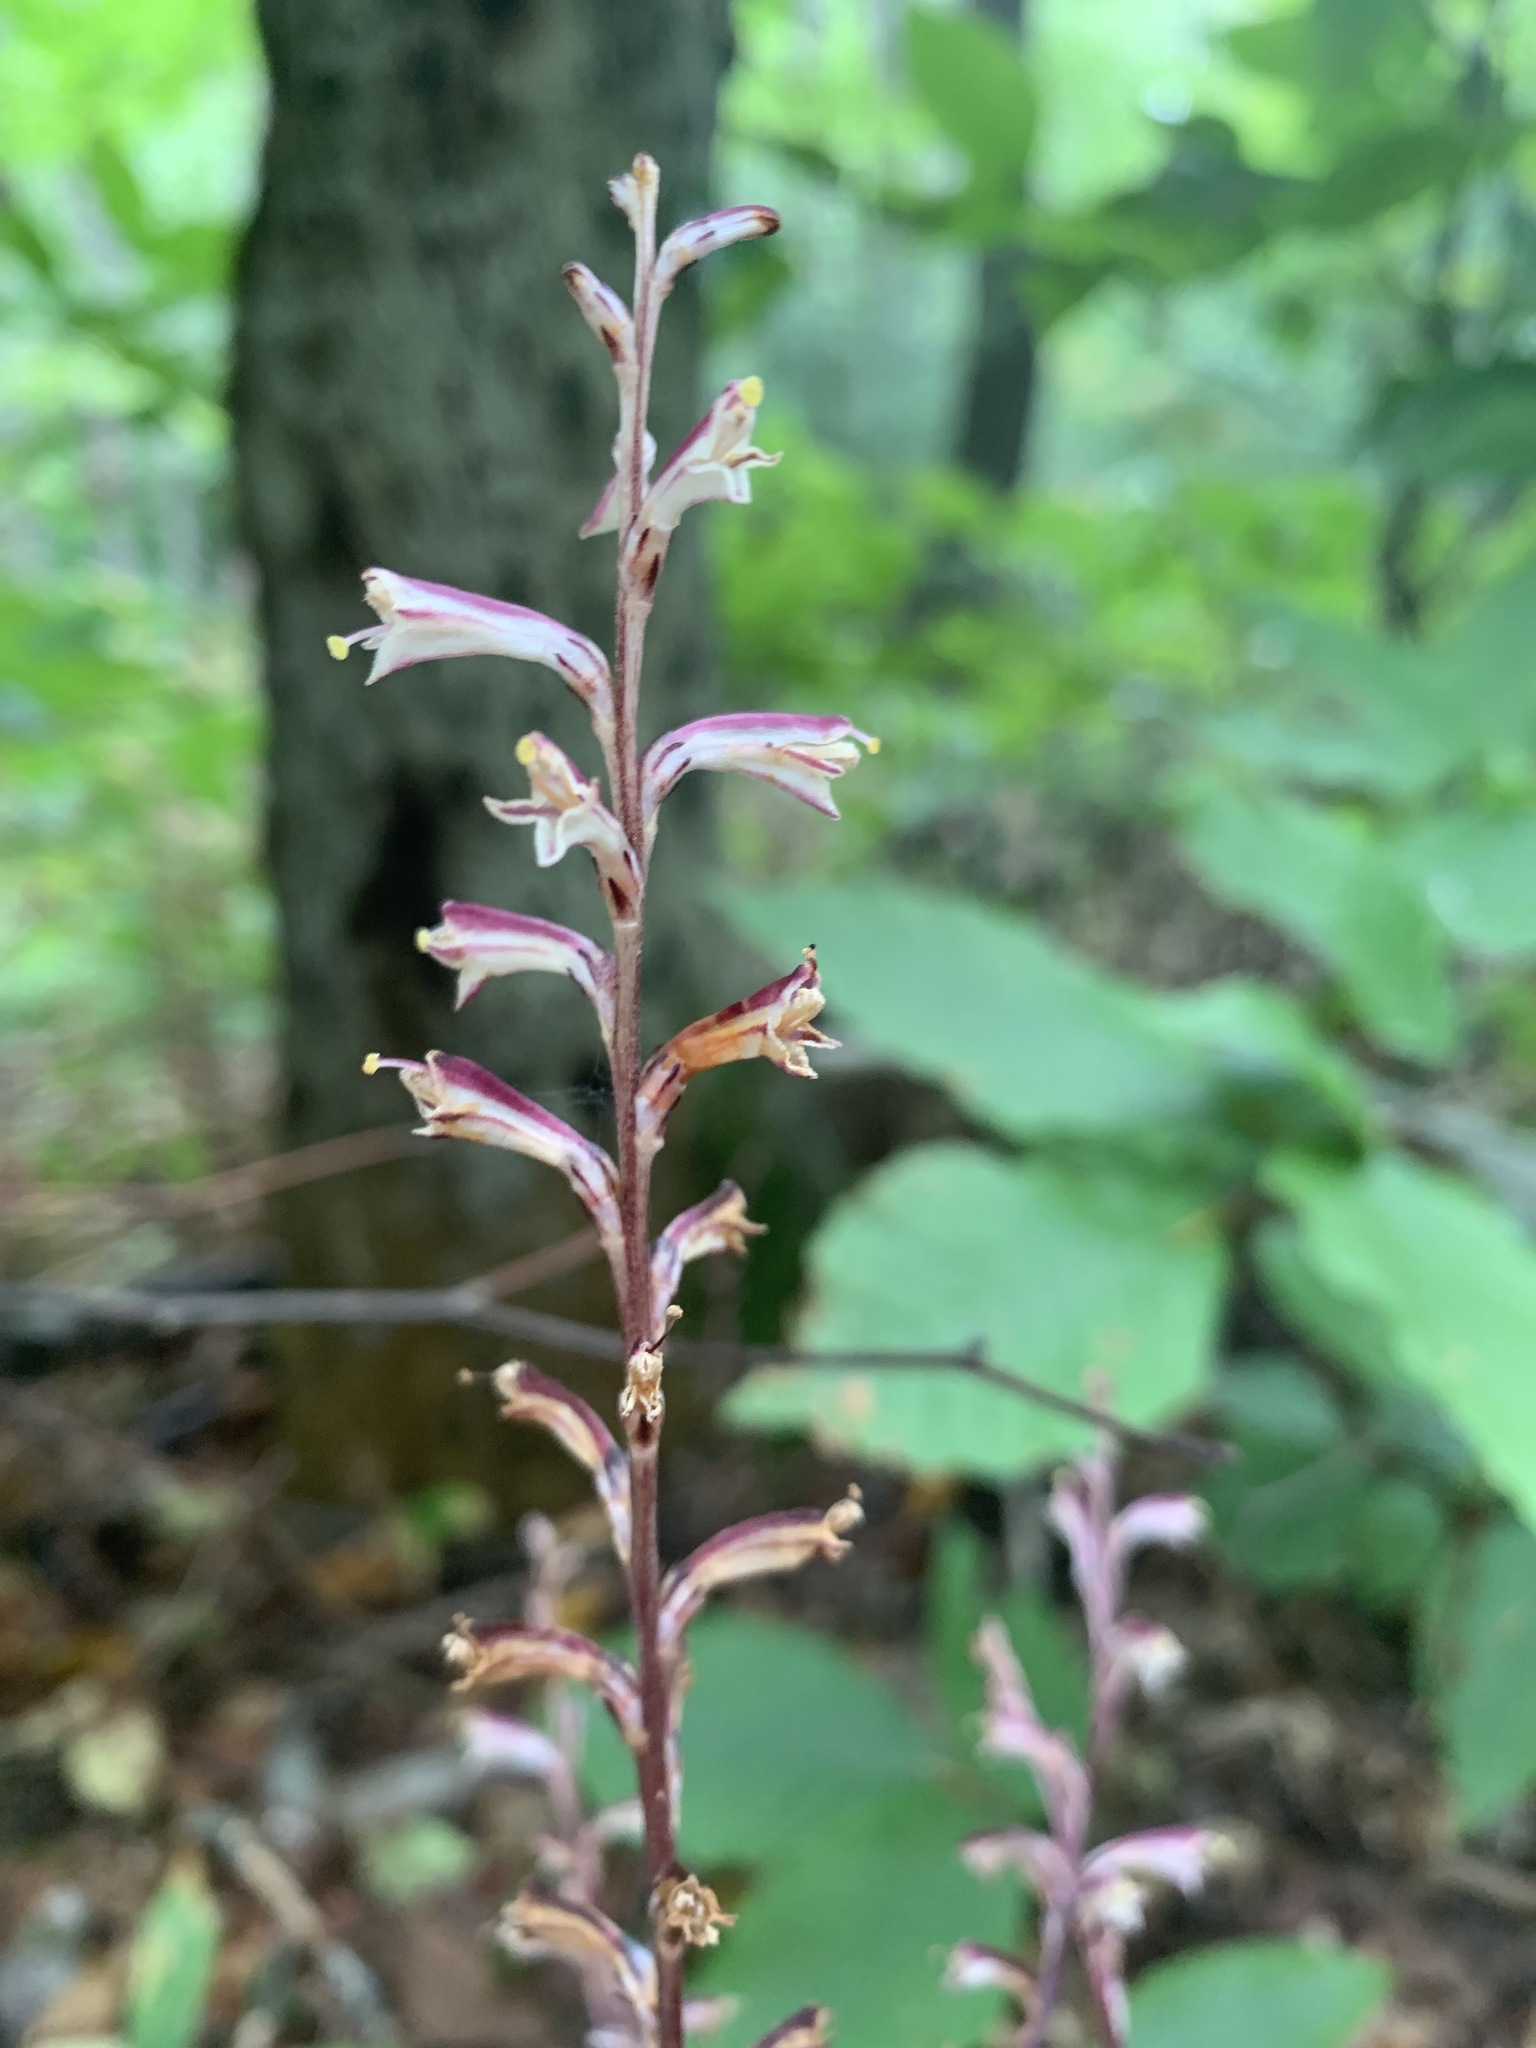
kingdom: Plantae
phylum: Tracheophyta
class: Magnoliopsida
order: Lamiales
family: Orobanchaceae
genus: Epifagus
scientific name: Epifagus virginiana
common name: Beechdrops
